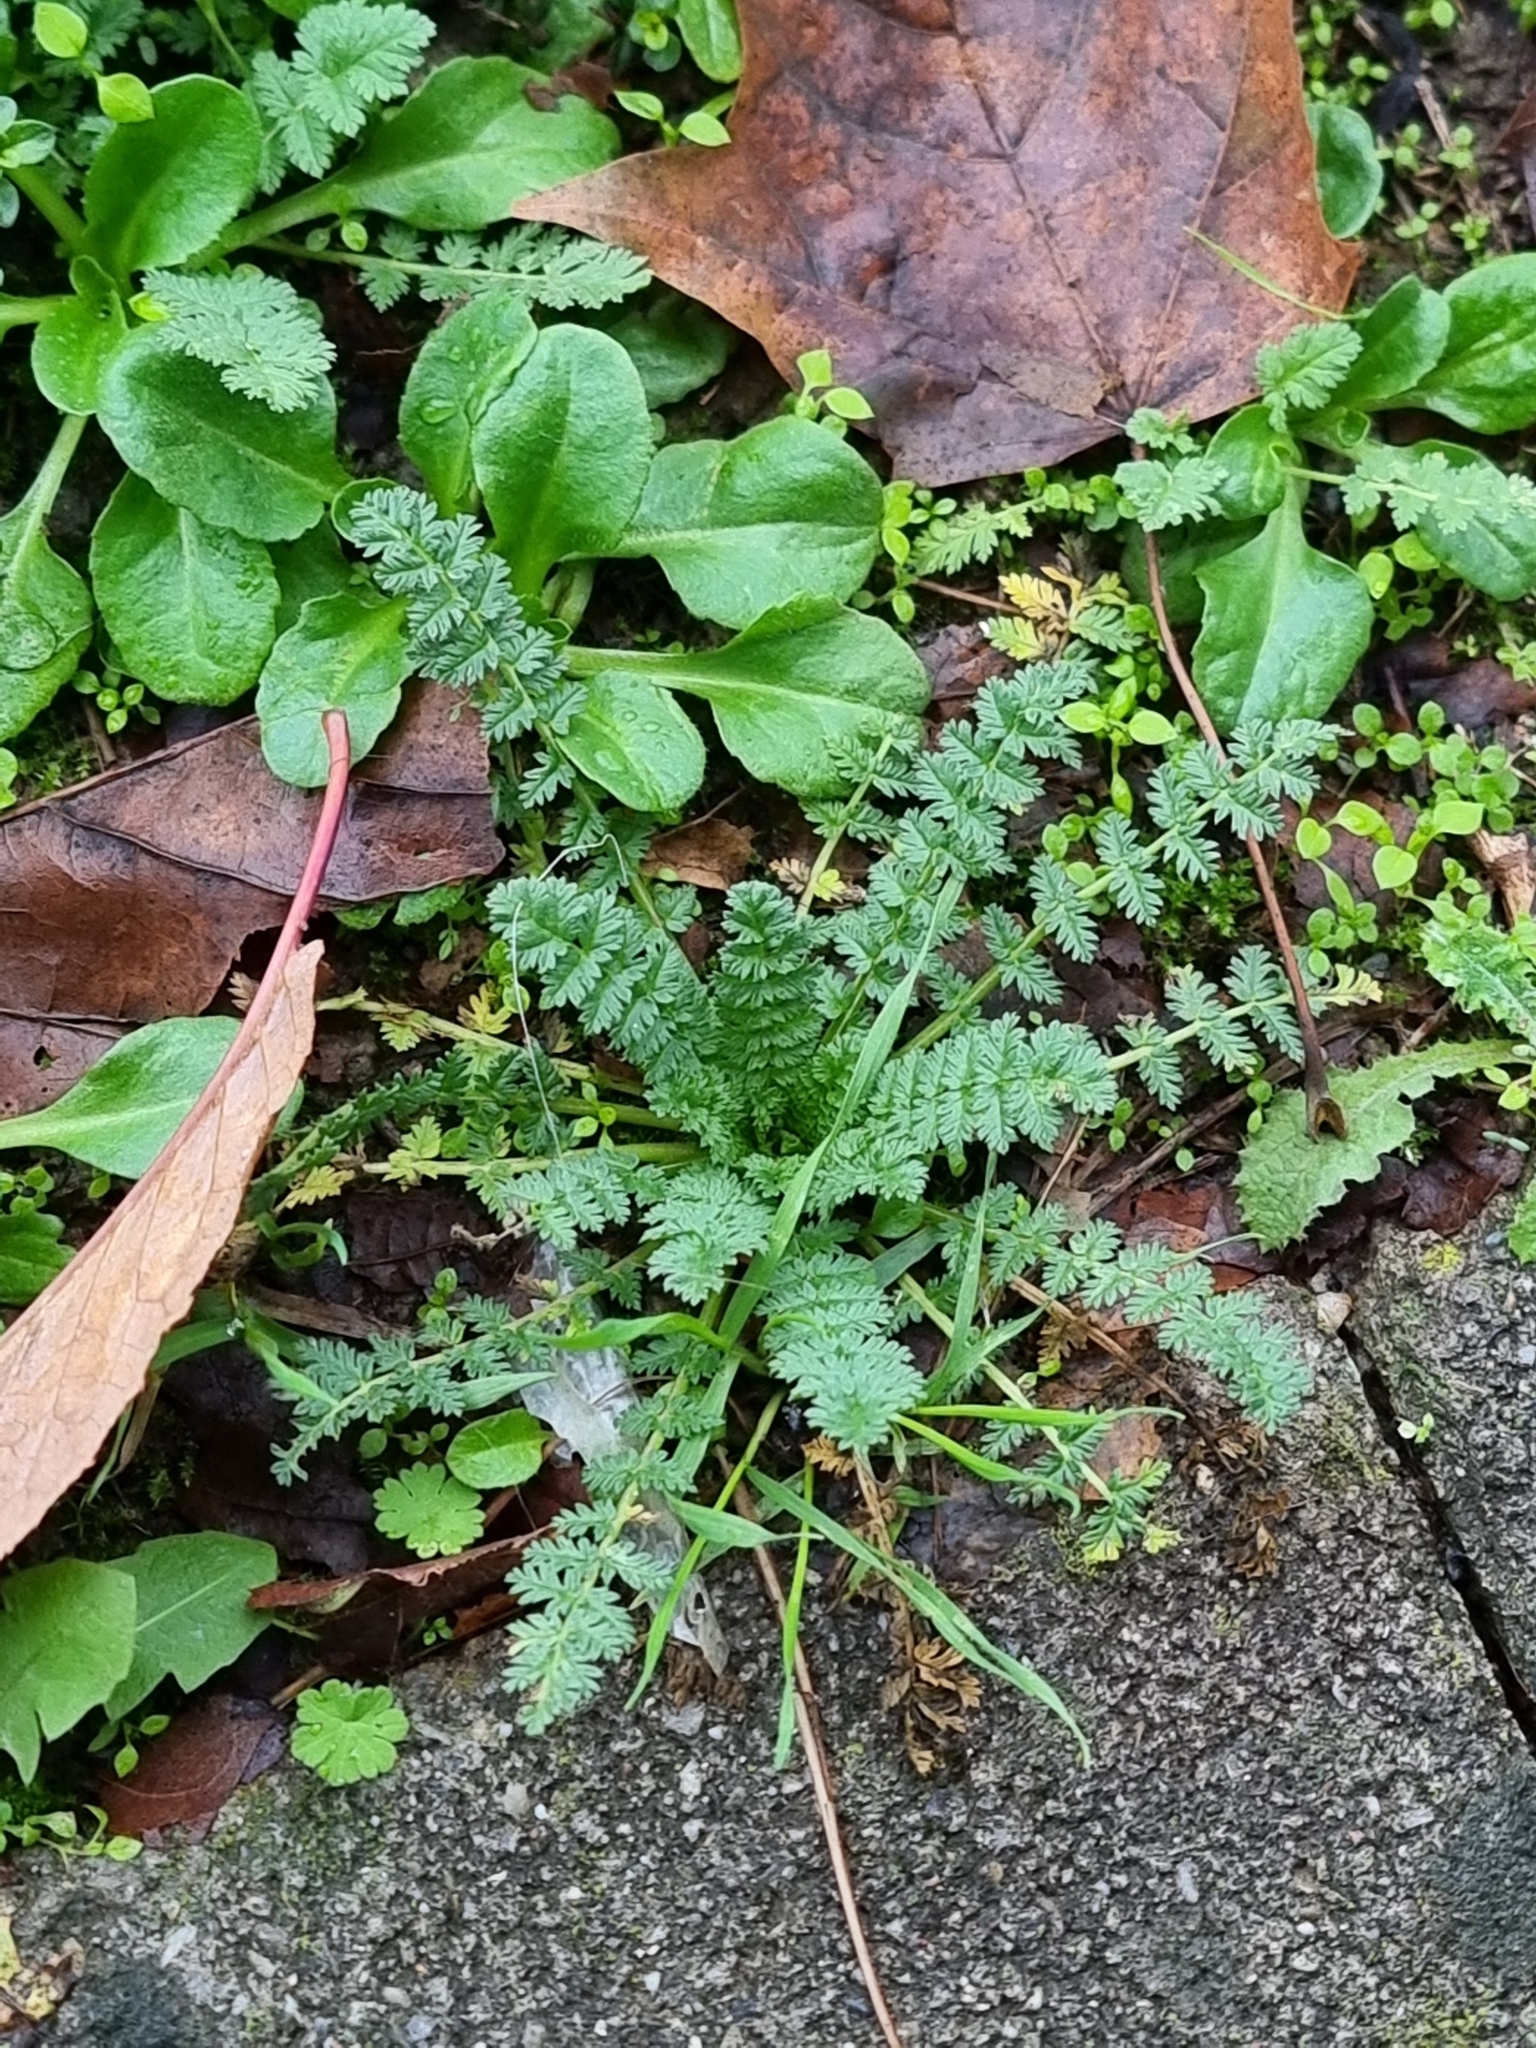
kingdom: Plantae
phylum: Tracheophyta
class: Magnoliopsida
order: Geraniales
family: Geraniaceae
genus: Erodium
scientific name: Erodium cicutarium
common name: Common stork's-bill
